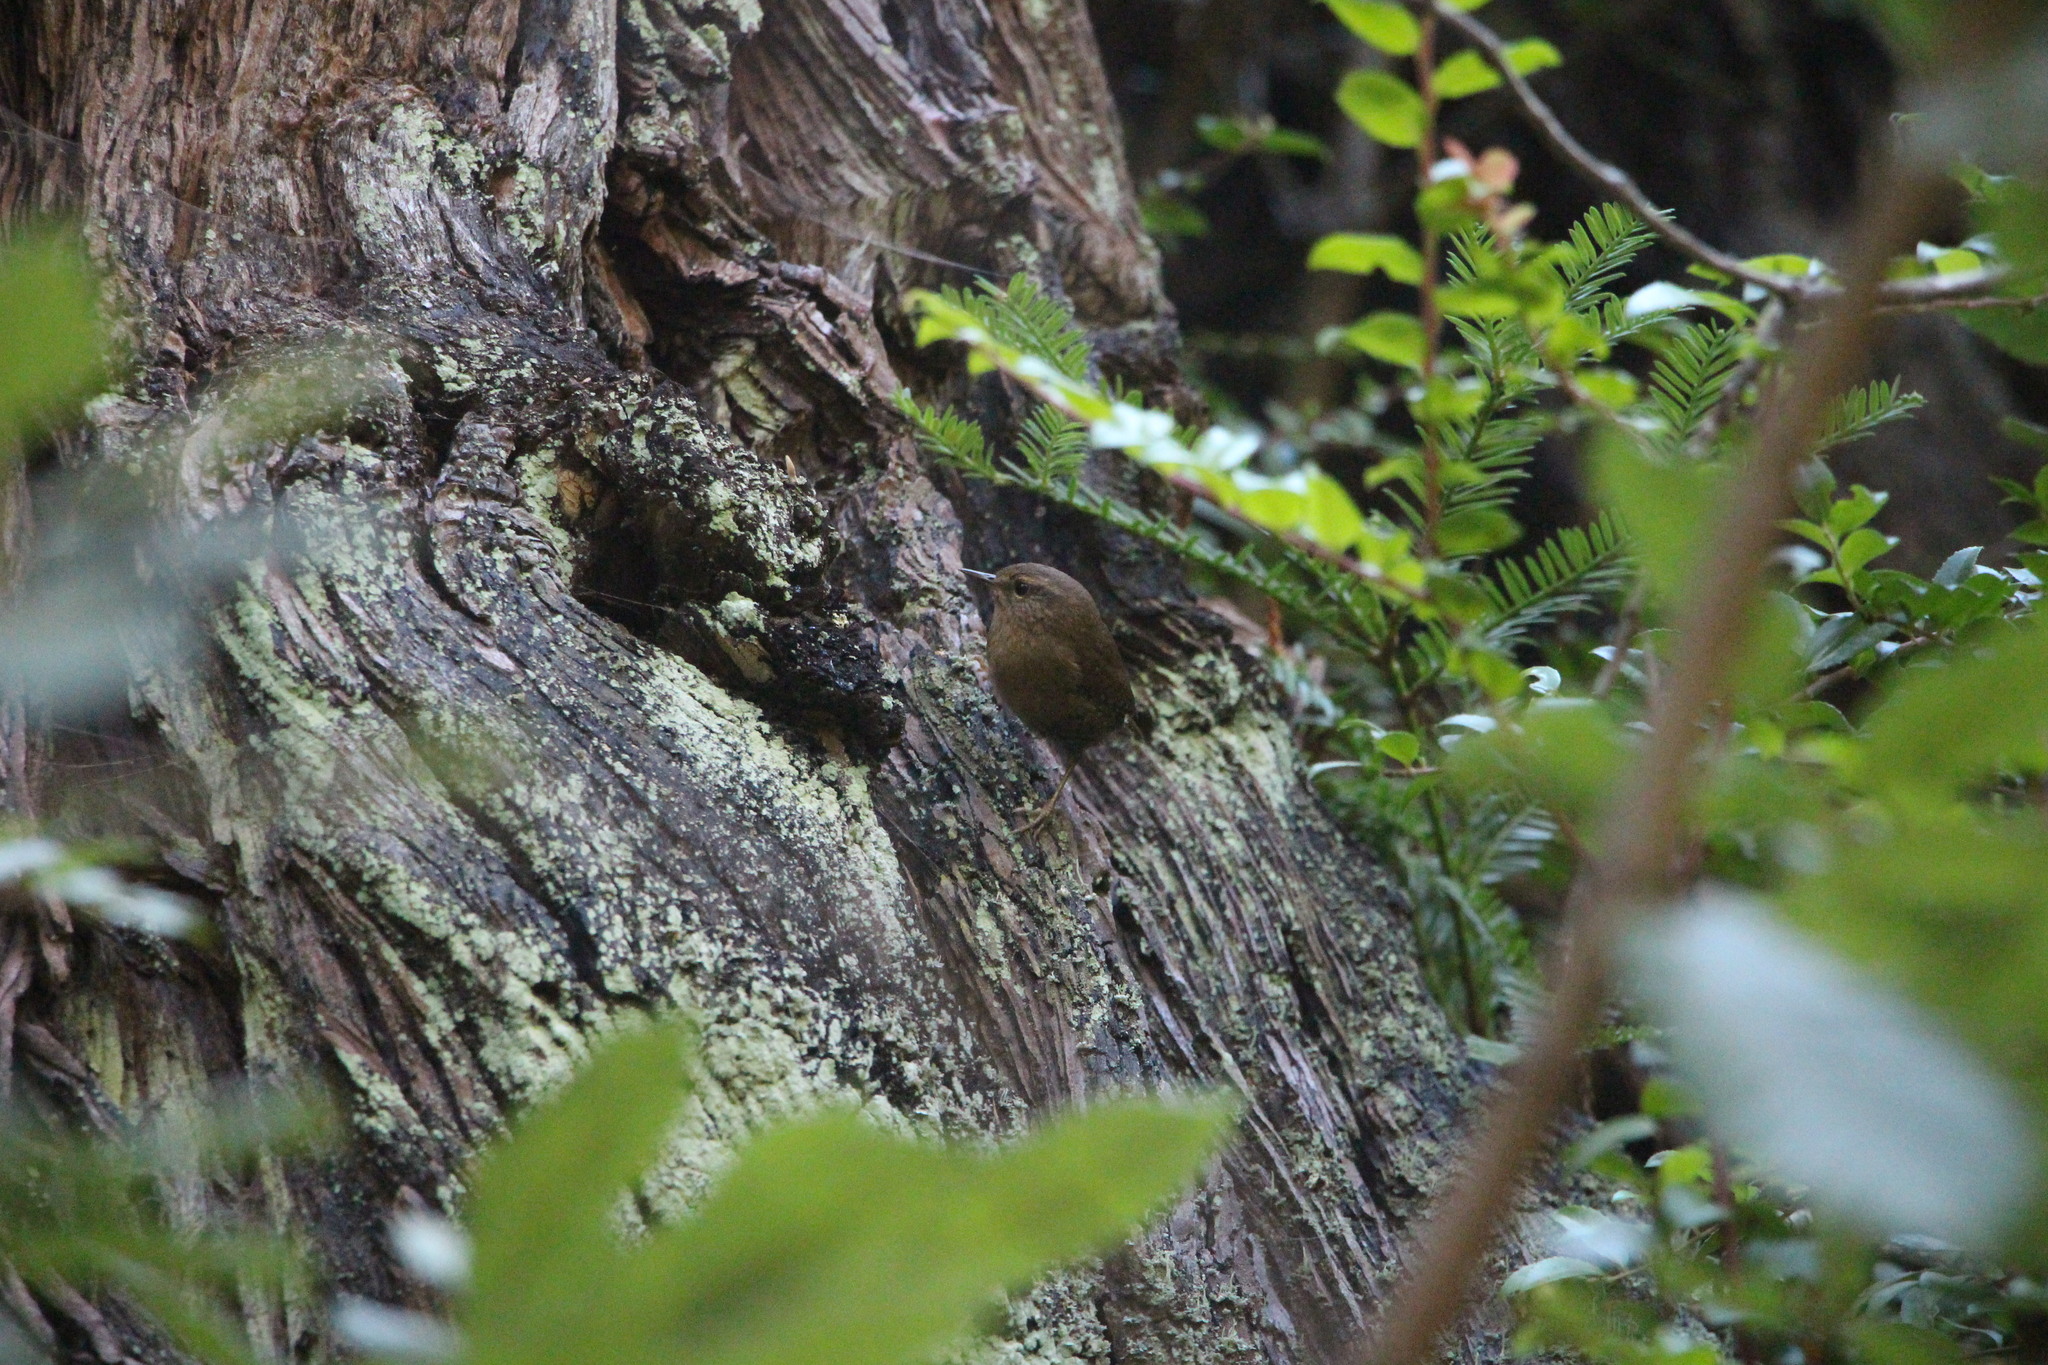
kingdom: Animalia
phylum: Chordata
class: Aves
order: Passeriformes
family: Troglodytidae
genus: Troglodytes
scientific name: Troglodytes pacificus
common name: Pacific wren
